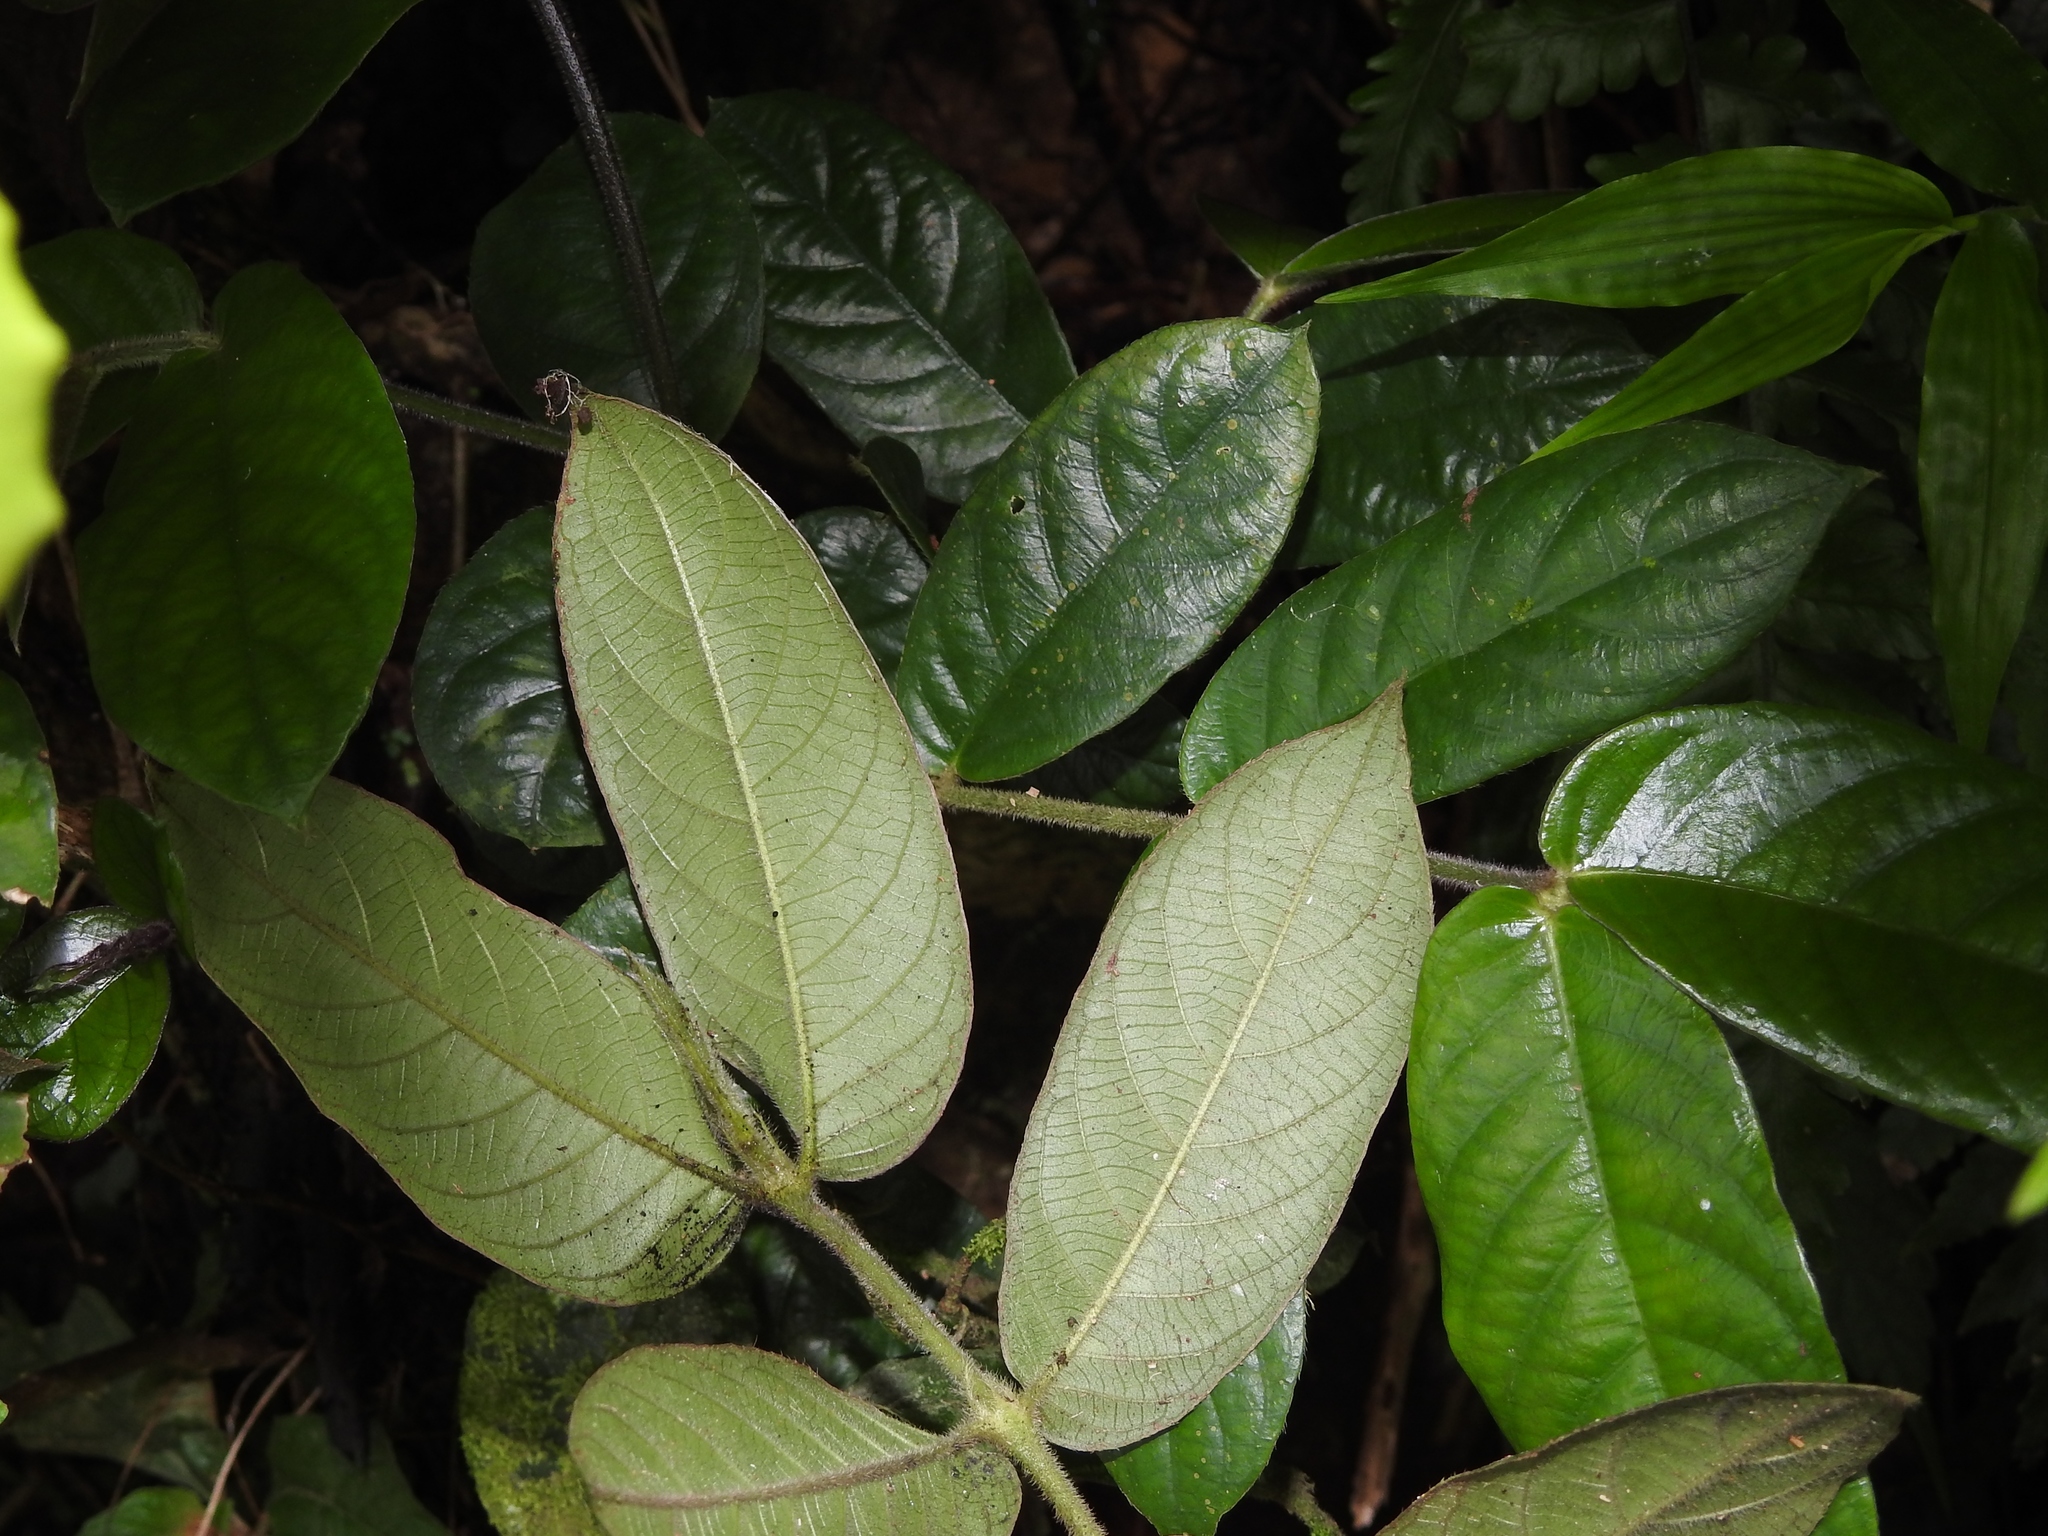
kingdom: Plantae
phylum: Tracheophyta
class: Magnoliopsida
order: Gentianales
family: Rubiaceae
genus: Lasianthus
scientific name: Lasianthus attenuatus
